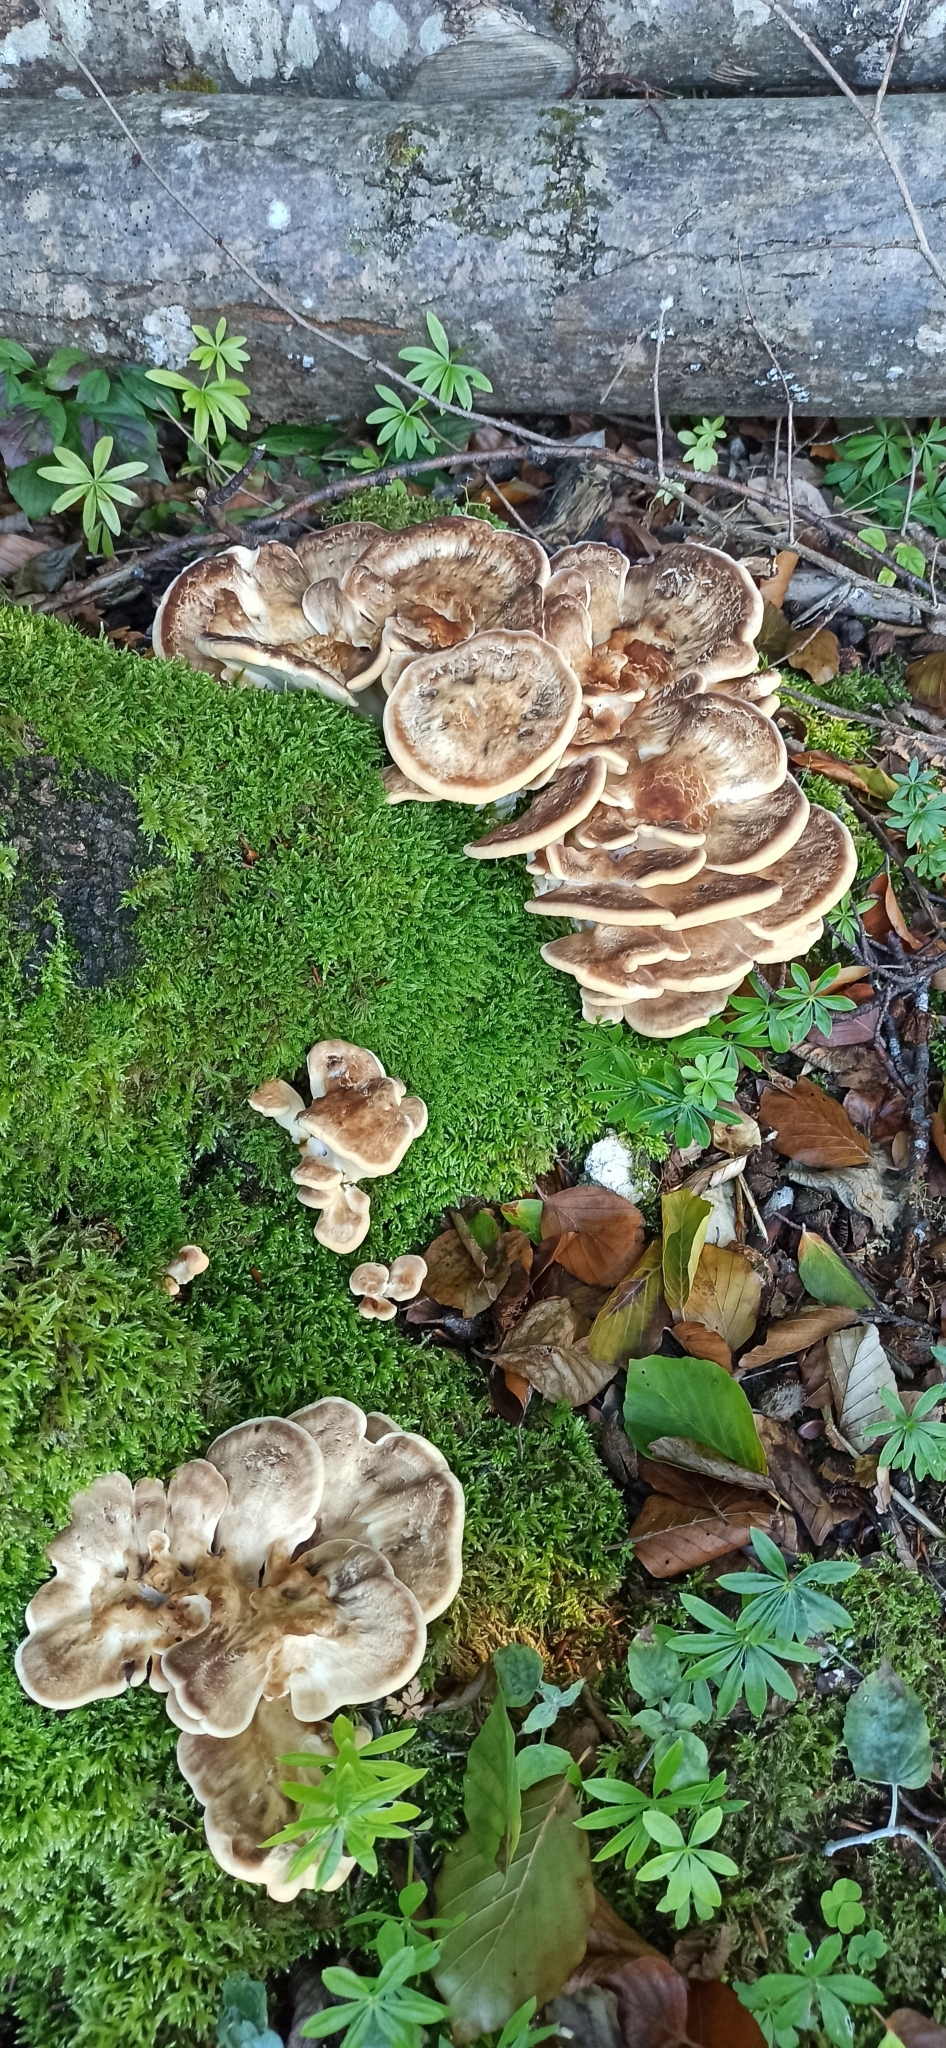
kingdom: Fungi
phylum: Basidiomycota
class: Agaricomycetes
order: Polyporales
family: Meripilaceae
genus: Meripilus
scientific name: Meripilus giganteus
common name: Giant polypore
